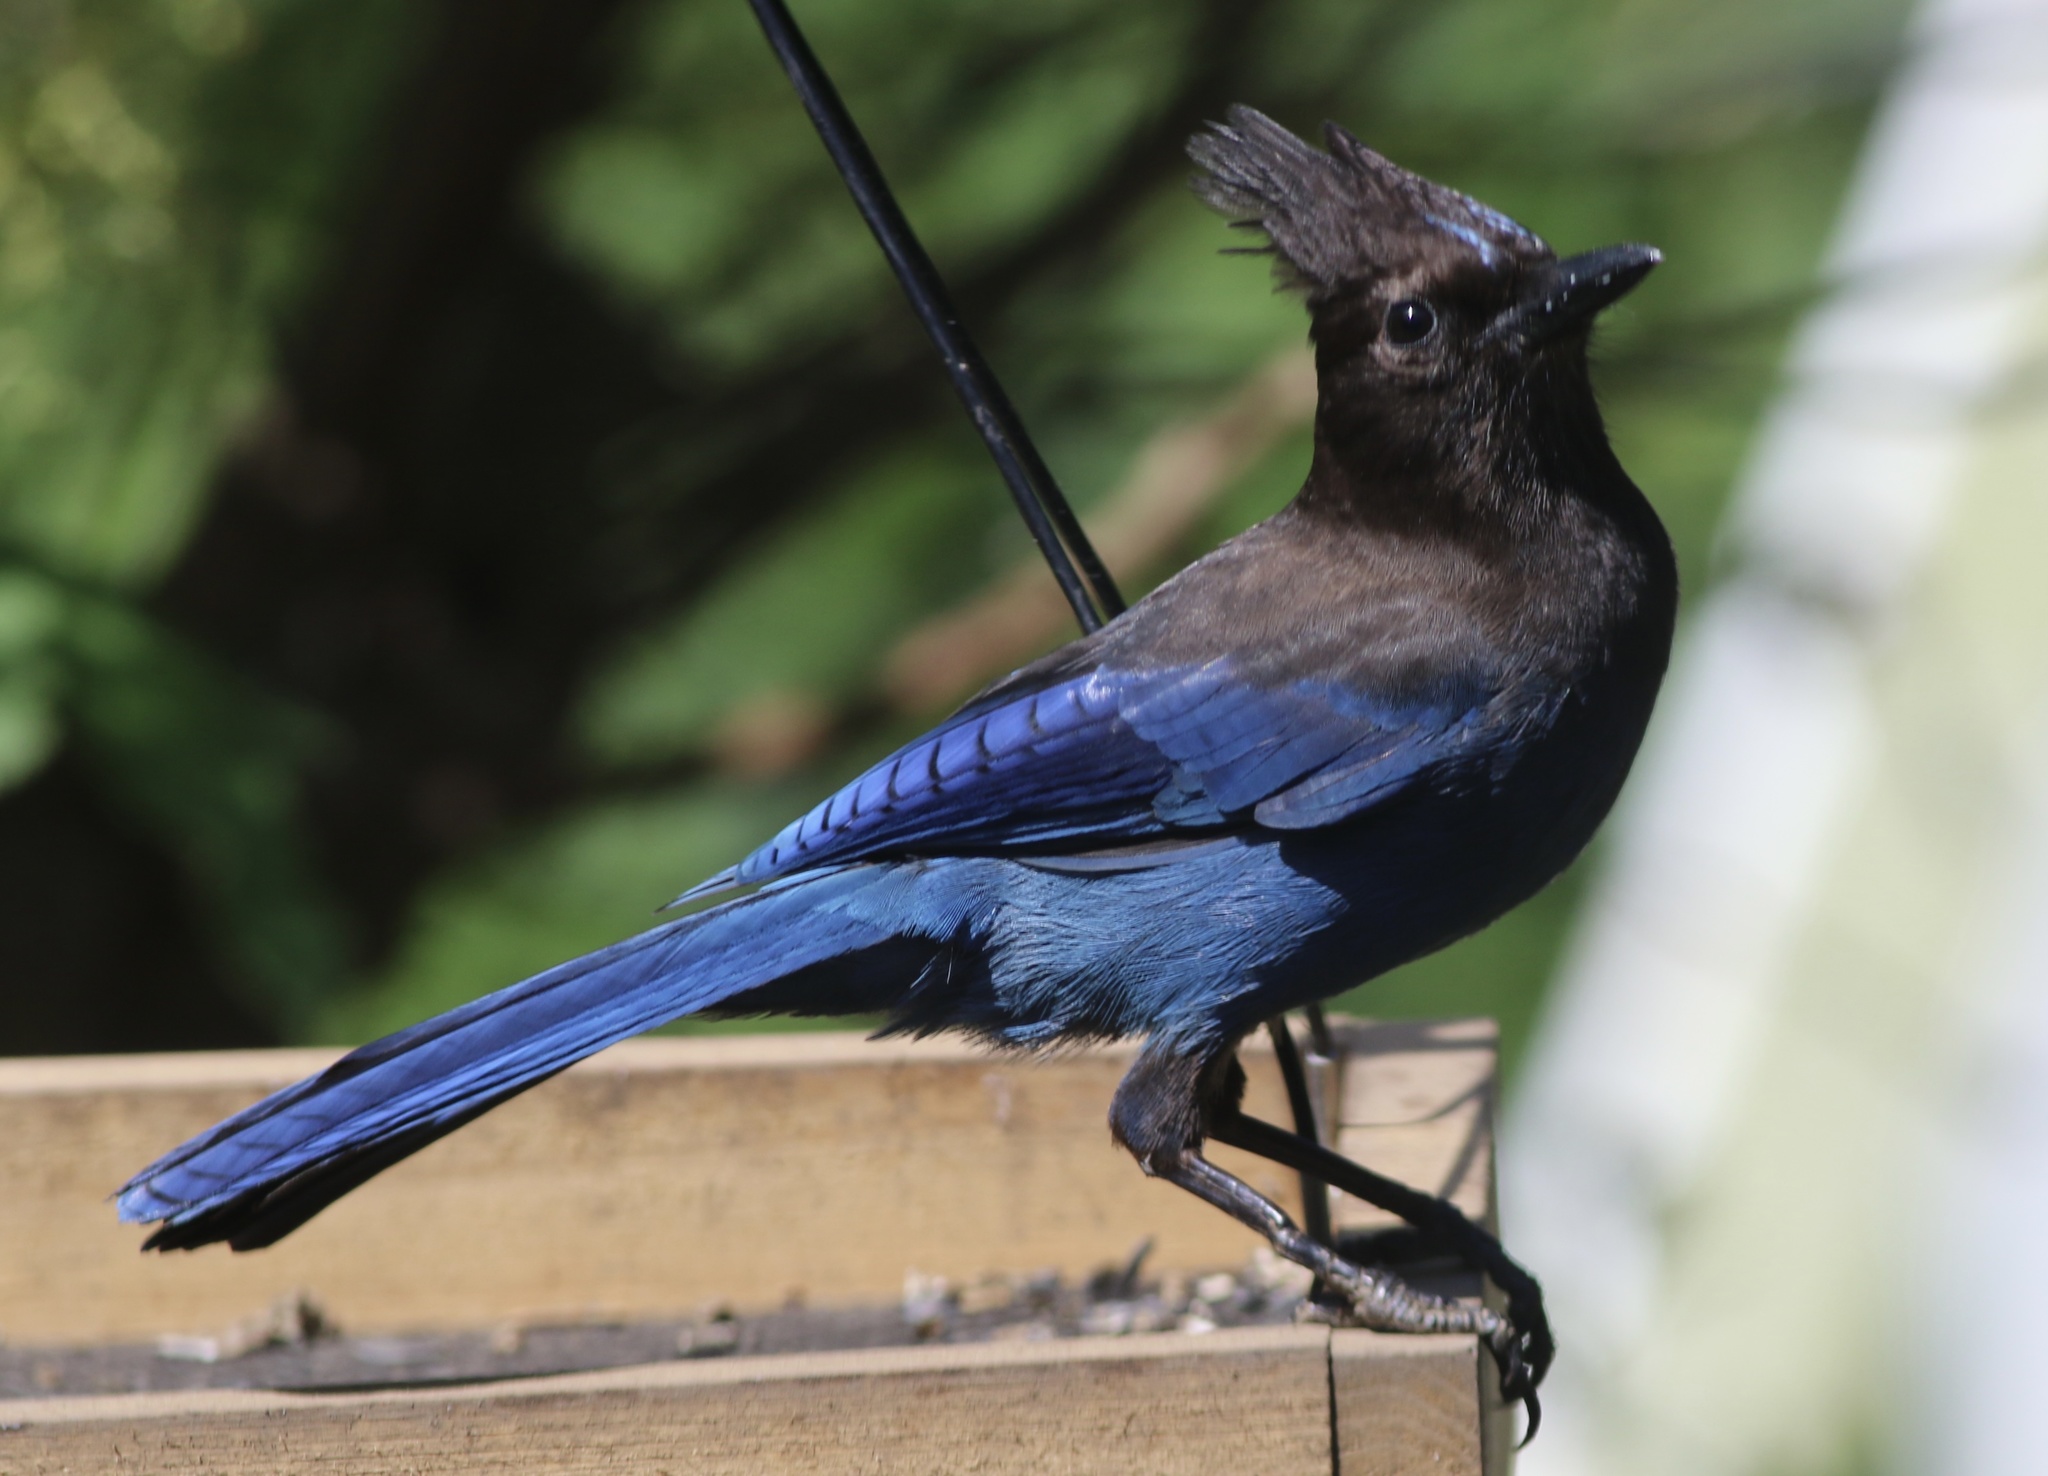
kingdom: Animalia
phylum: Chordata
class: Aves
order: Passeriformes
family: Corvidae
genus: Cyanocitta
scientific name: Cyanocitta stelleri
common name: Steller's jay
